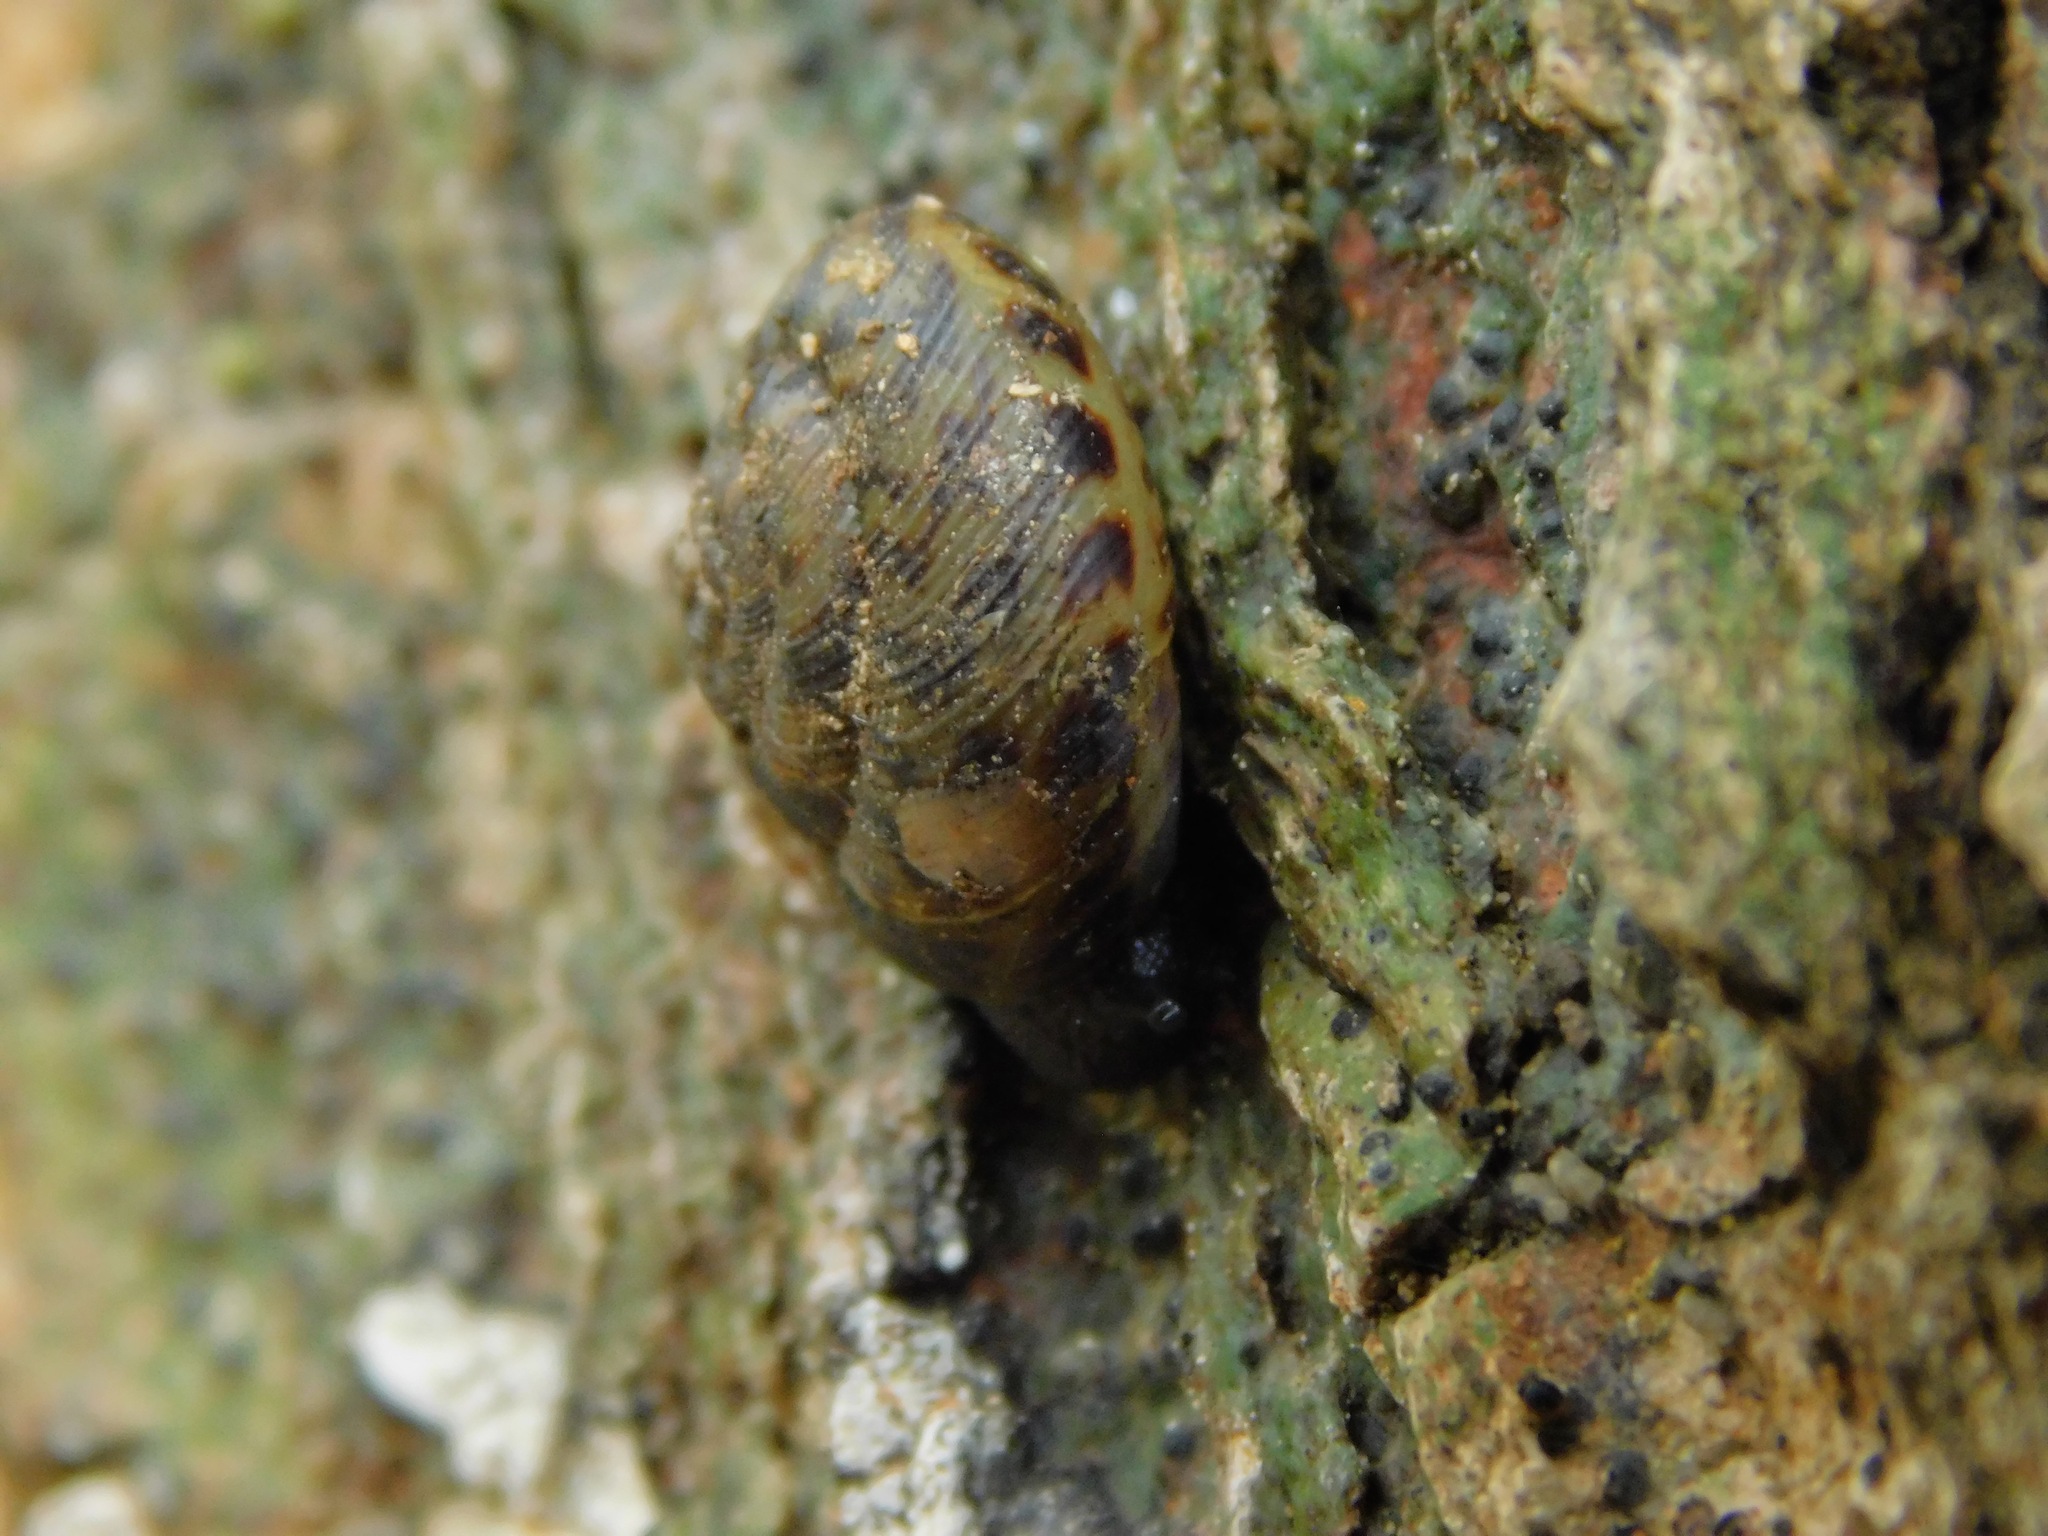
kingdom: Animalia
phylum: Mollusca
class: Gastropoda
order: Stylommatophora
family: Discidae
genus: Anguispira
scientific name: Anguispira alternata
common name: Flamed tigersnail
